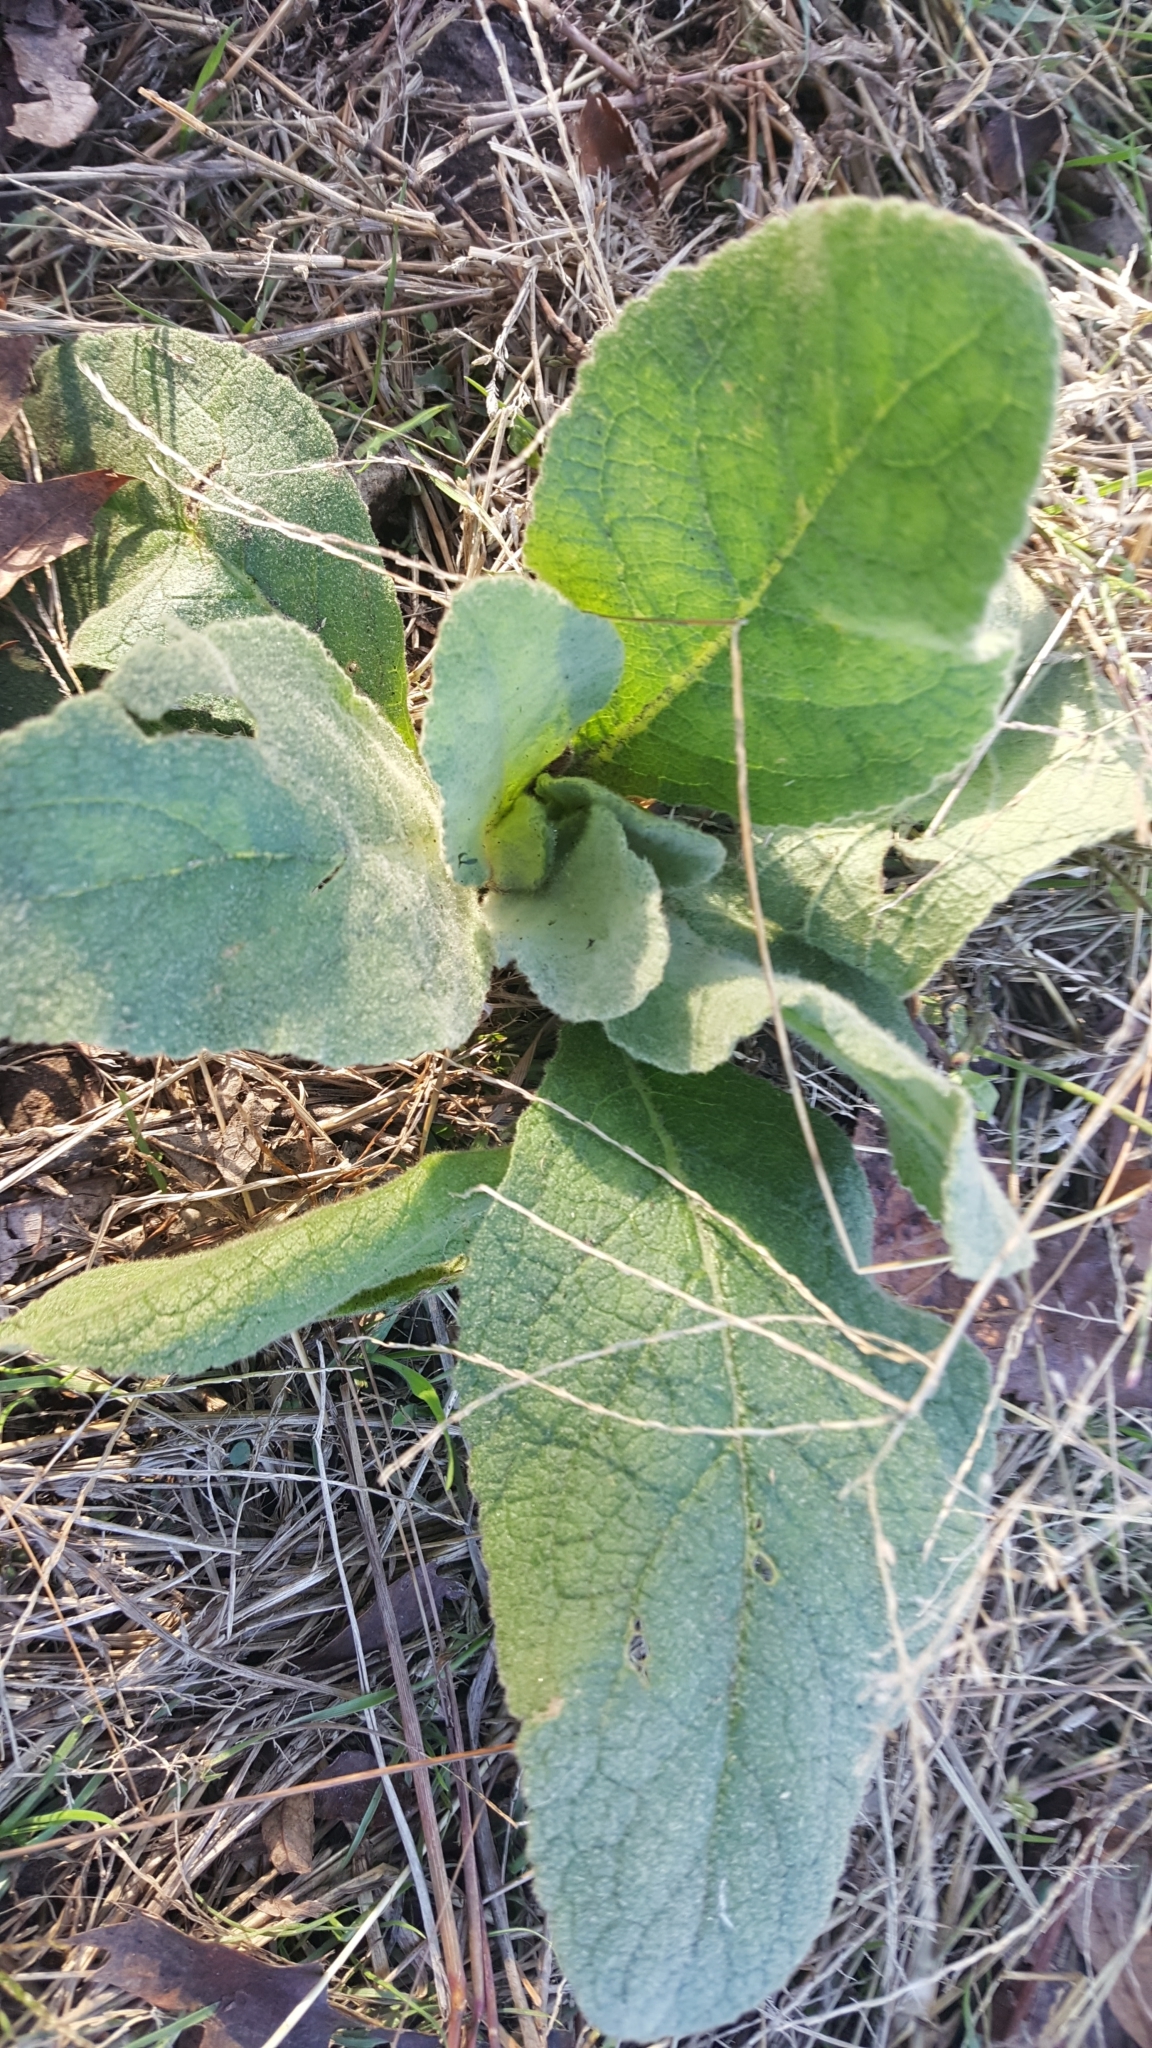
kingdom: Plantae
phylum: Tracheophyta
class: Magnoliopsida
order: Lamiales
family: Scrophulariaceae
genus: Verbascum
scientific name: Verbascum thapsus
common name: Common mullein
